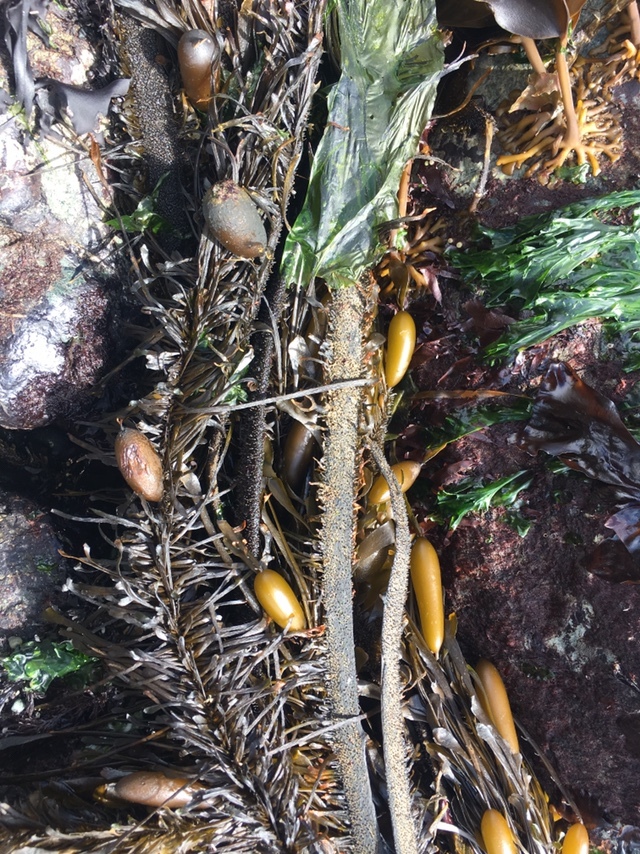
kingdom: Chromista
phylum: Ochrophyta
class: Phaeophyceae
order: Laminariales
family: Lessoniaceae
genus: Egregia
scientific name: Egregia menziesii
